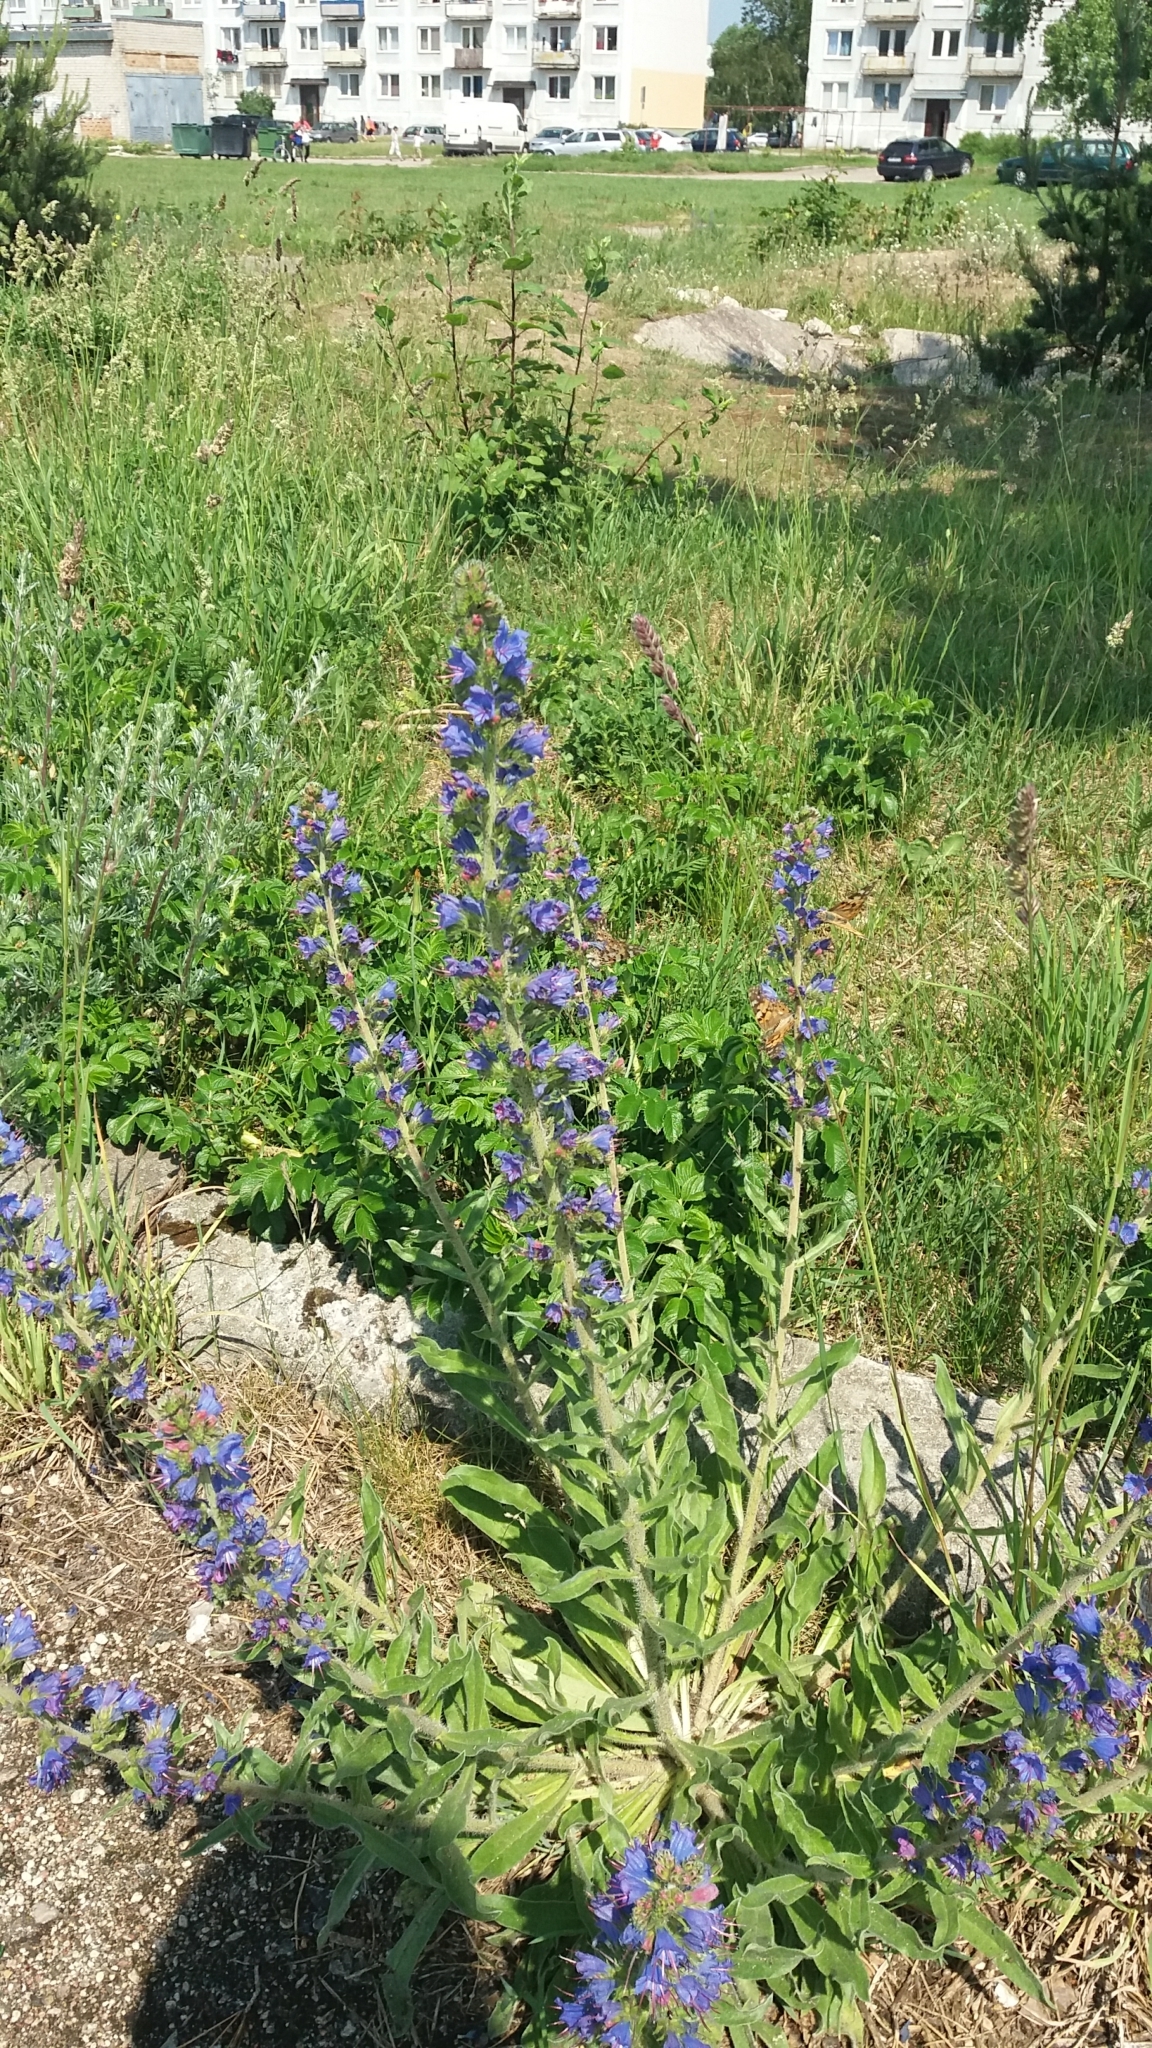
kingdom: Plantae
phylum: Tracheophyta
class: Magnoliopsida
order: Boraginales
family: Boraginaceae
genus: Echium
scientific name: Echium vulgare
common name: Common viper's bugloss
